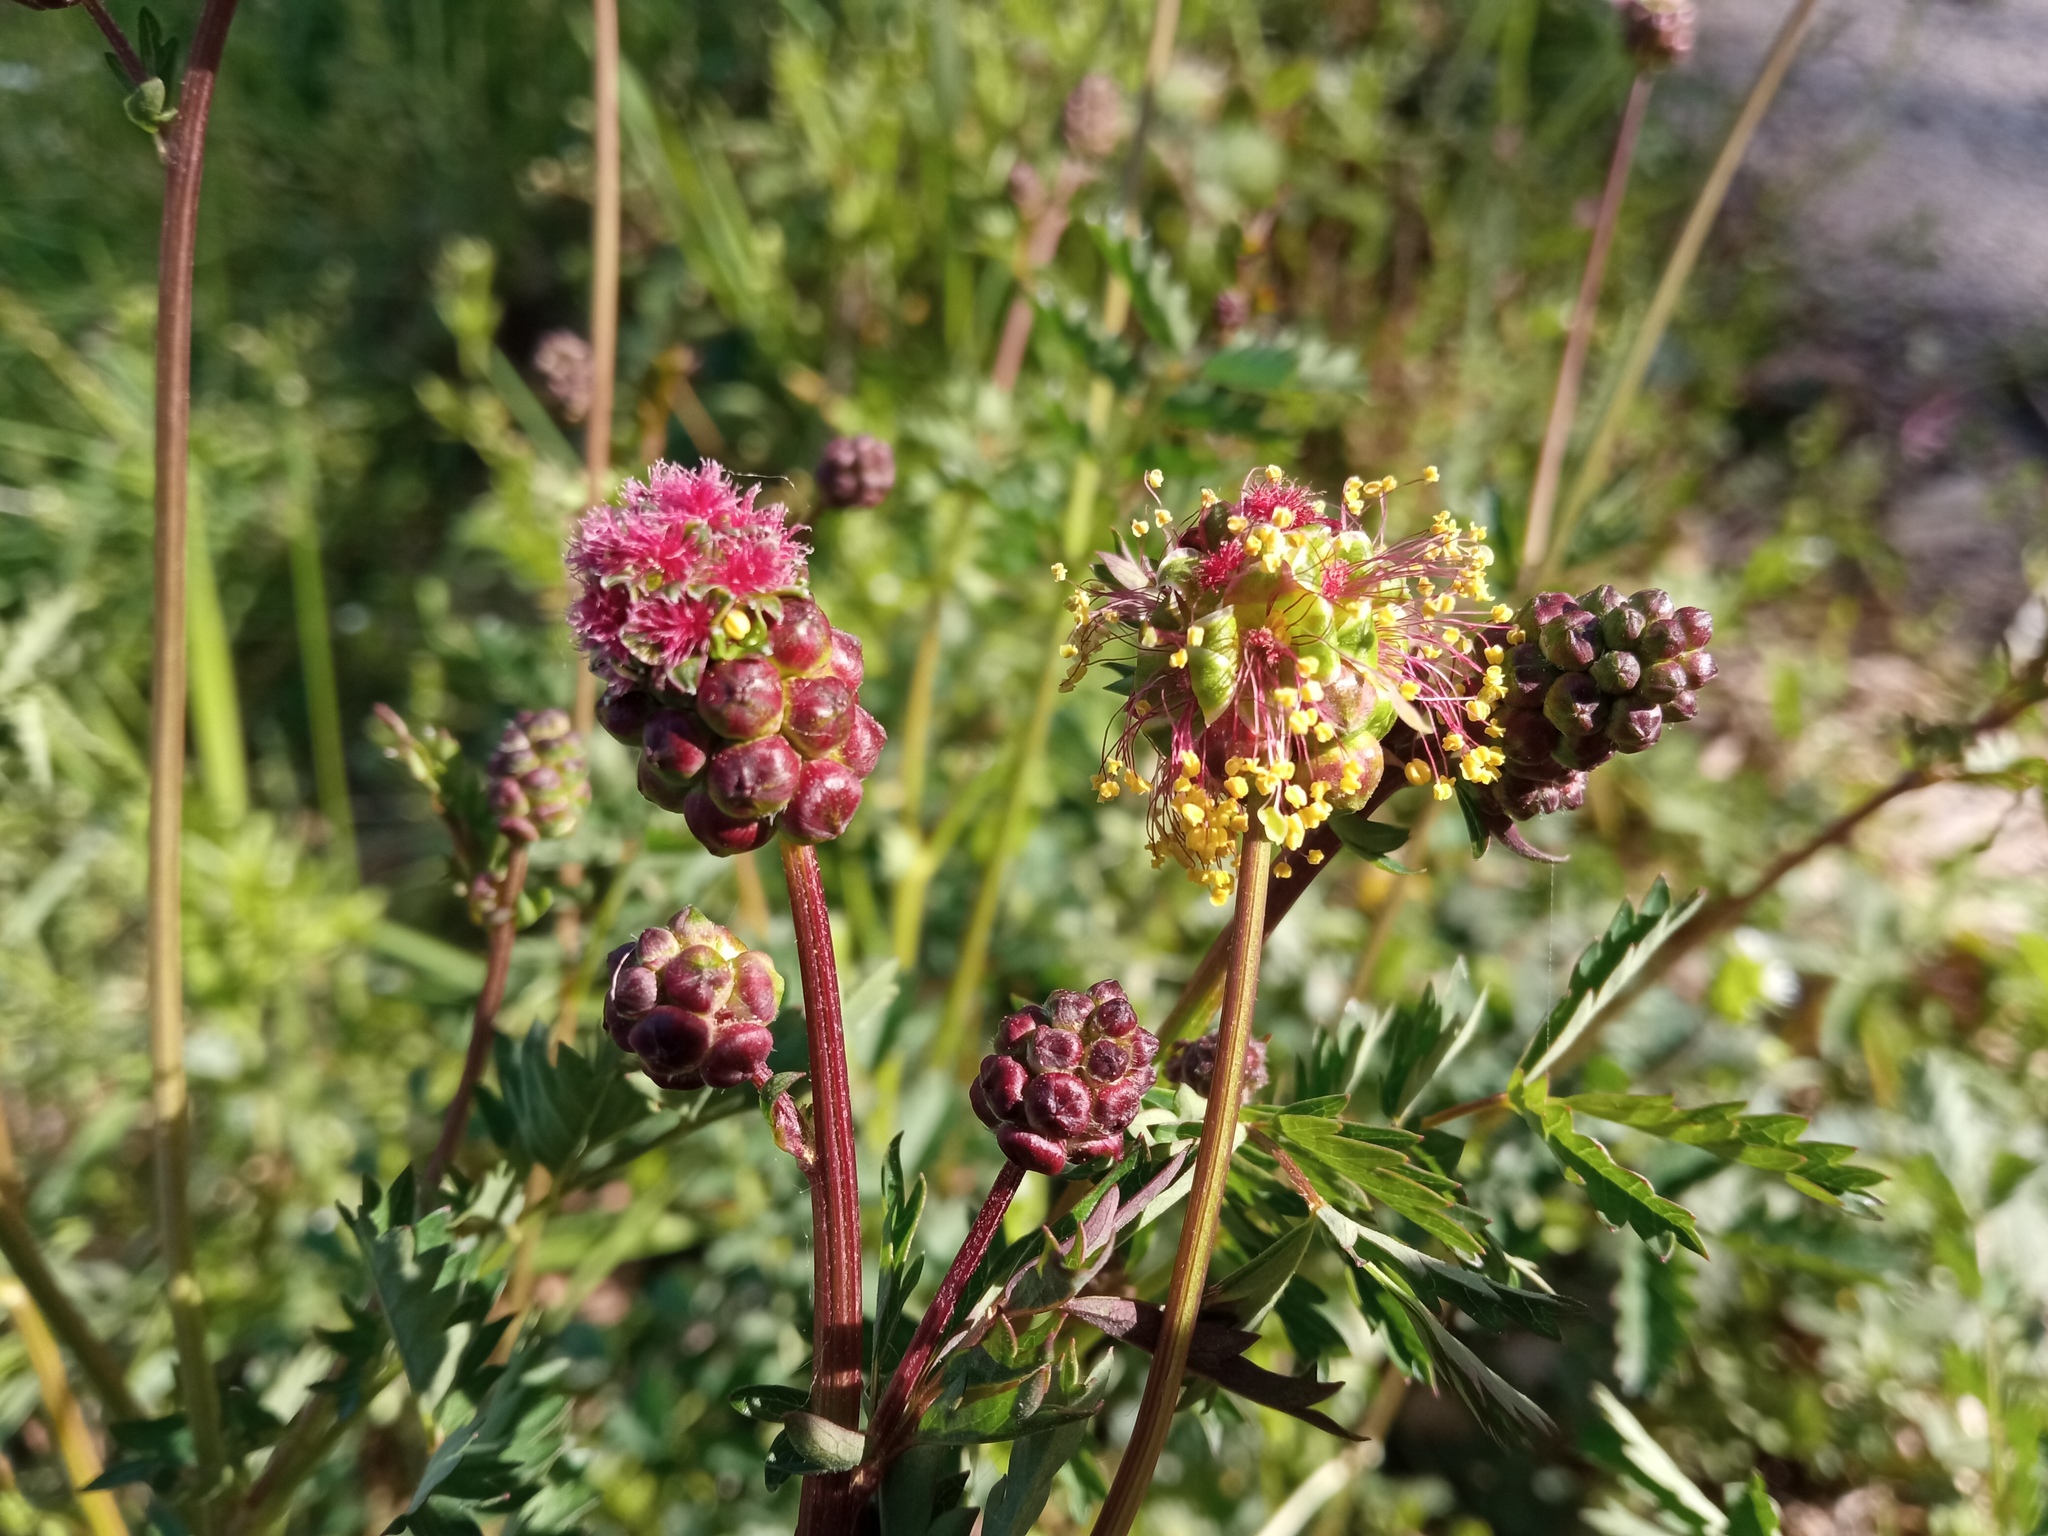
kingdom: Plantae
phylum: Tracheophyta
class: Magnoliopsida
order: Rosales
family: Rosaceae
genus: Poterium
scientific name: Poterium sanguisorba
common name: Salad burnet
